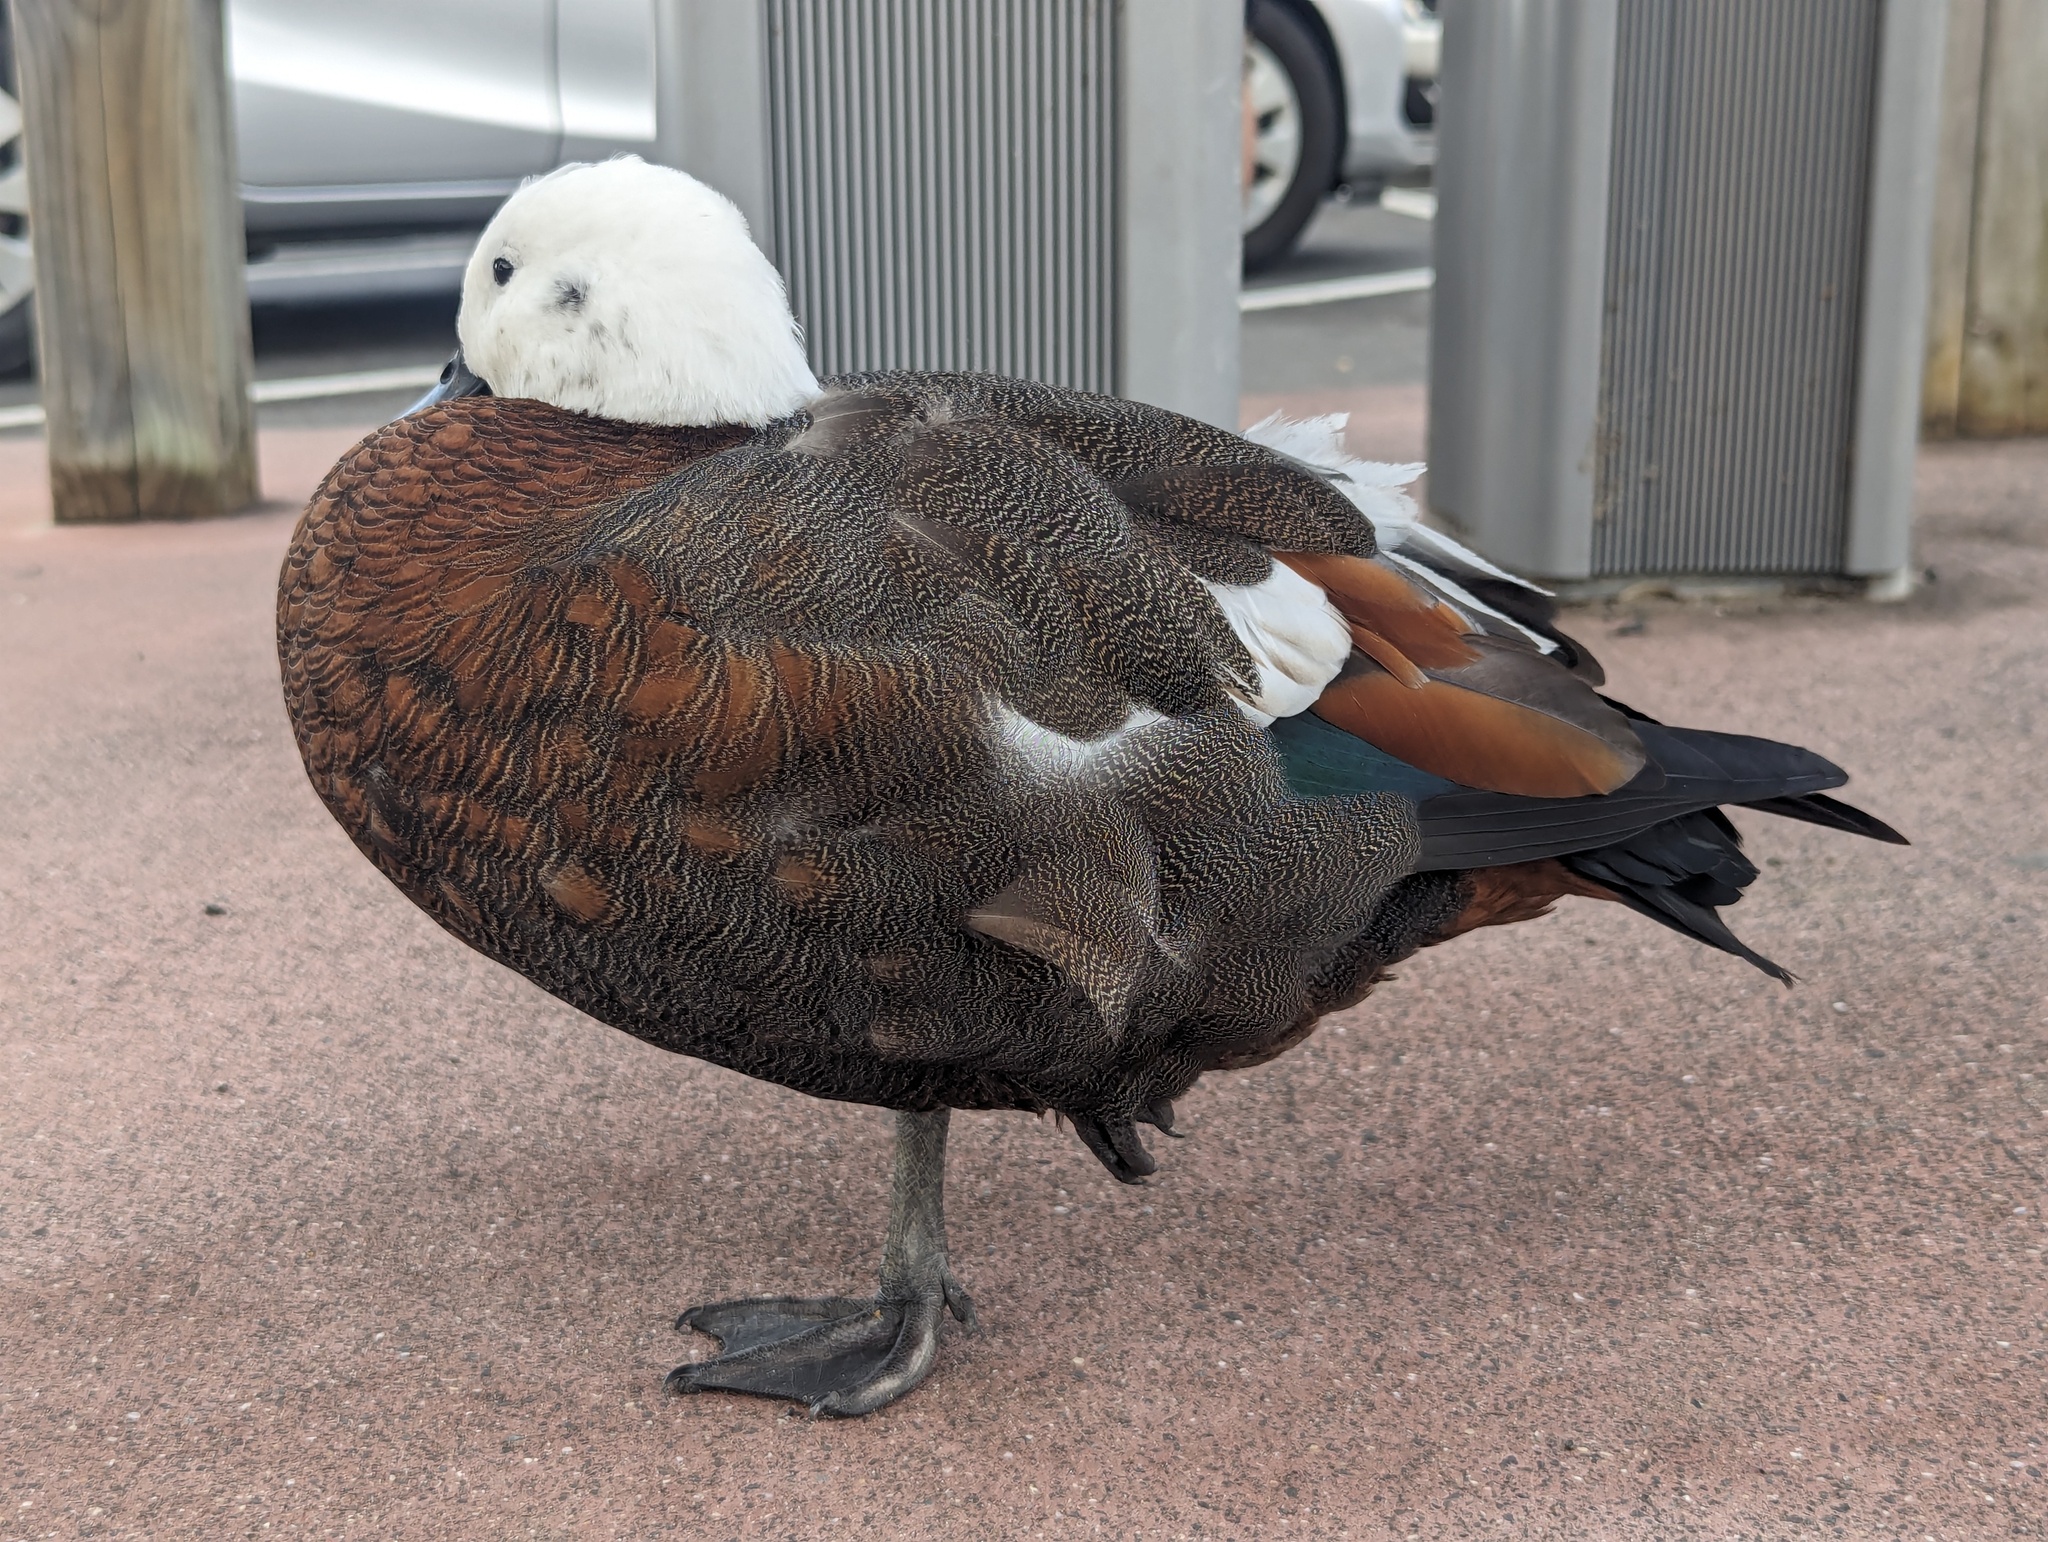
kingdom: Animalia
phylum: Chordata
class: Aves
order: Anseriformes
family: Anatidae
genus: Tadorna
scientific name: Tadorna variegata
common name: Paradise shelduck
